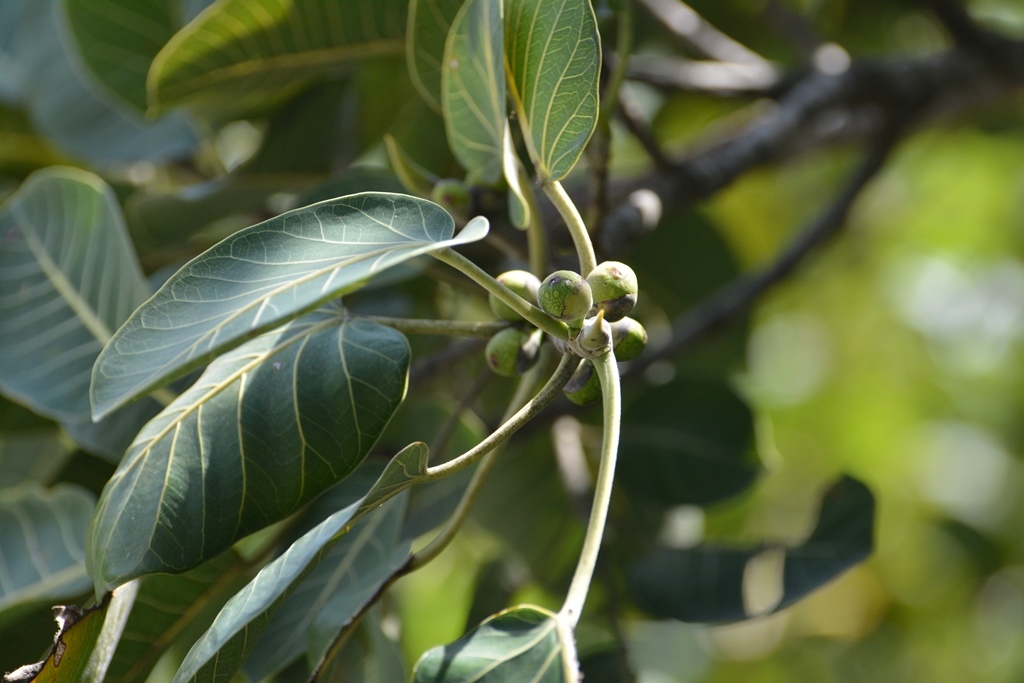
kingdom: Plantae
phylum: Tracheophyta
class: Magnoliopsida
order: Rosales
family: Moraceae
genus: Ficus
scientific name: Ficus aurea
